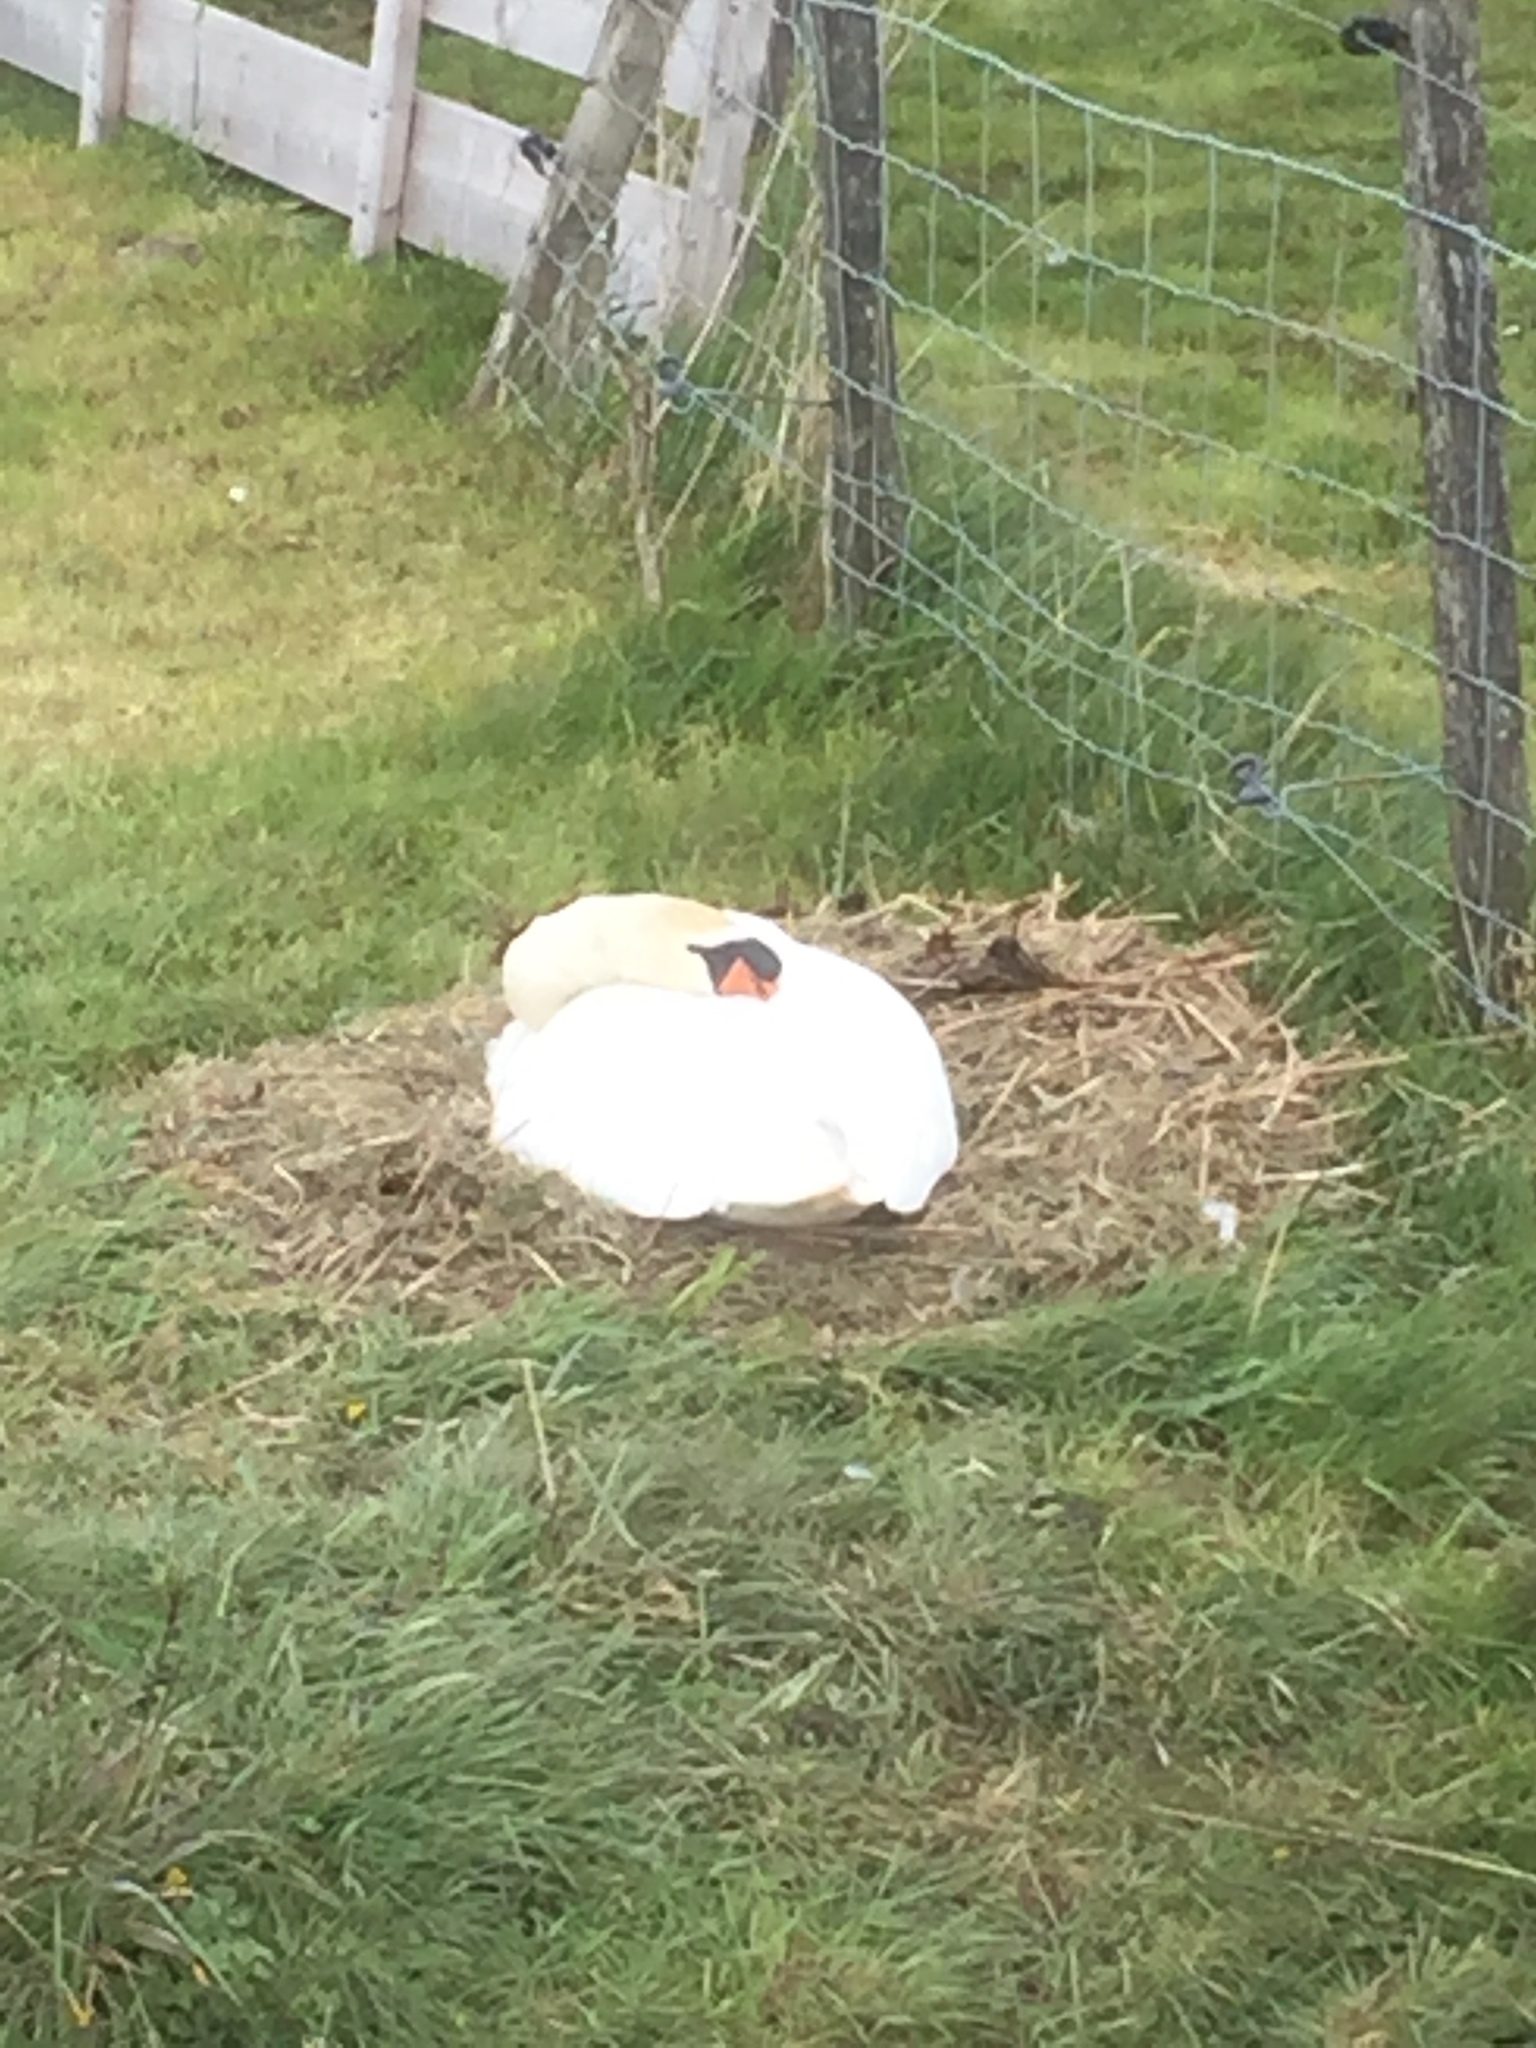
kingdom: Animalia
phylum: Chordata
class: Aves
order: Anseriformes
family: Anatidae
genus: Cygnus
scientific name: Cygnus olor
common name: Mute swan
